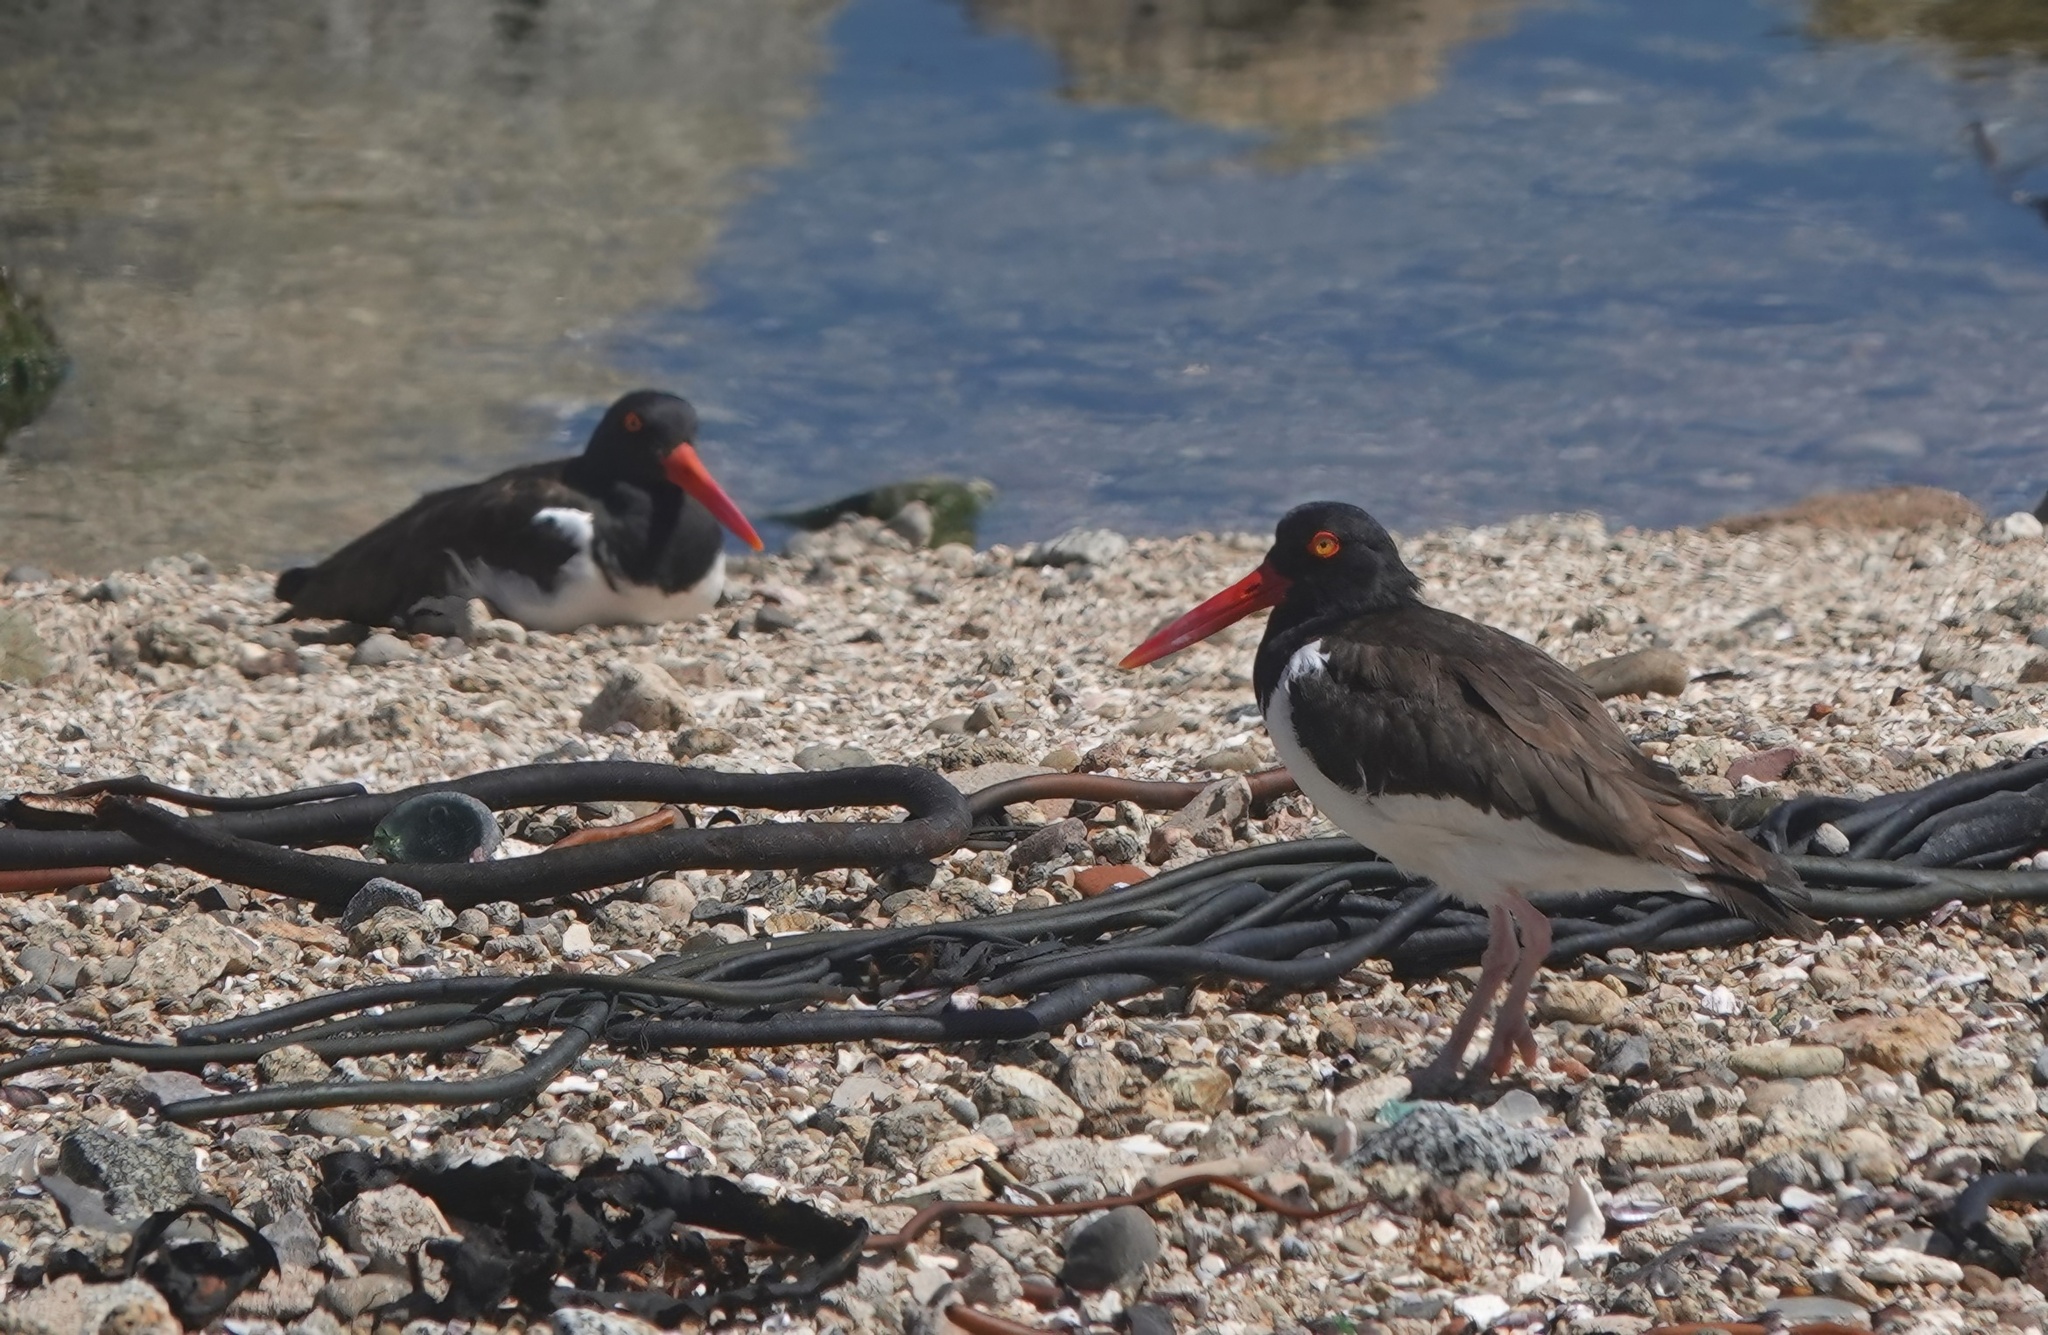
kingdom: Animalia
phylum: Chordata
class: Aves
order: Charadriiformes
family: Haematopodidae
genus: Haematopus
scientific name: Haematopus palliatus
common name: American oystercatcher
